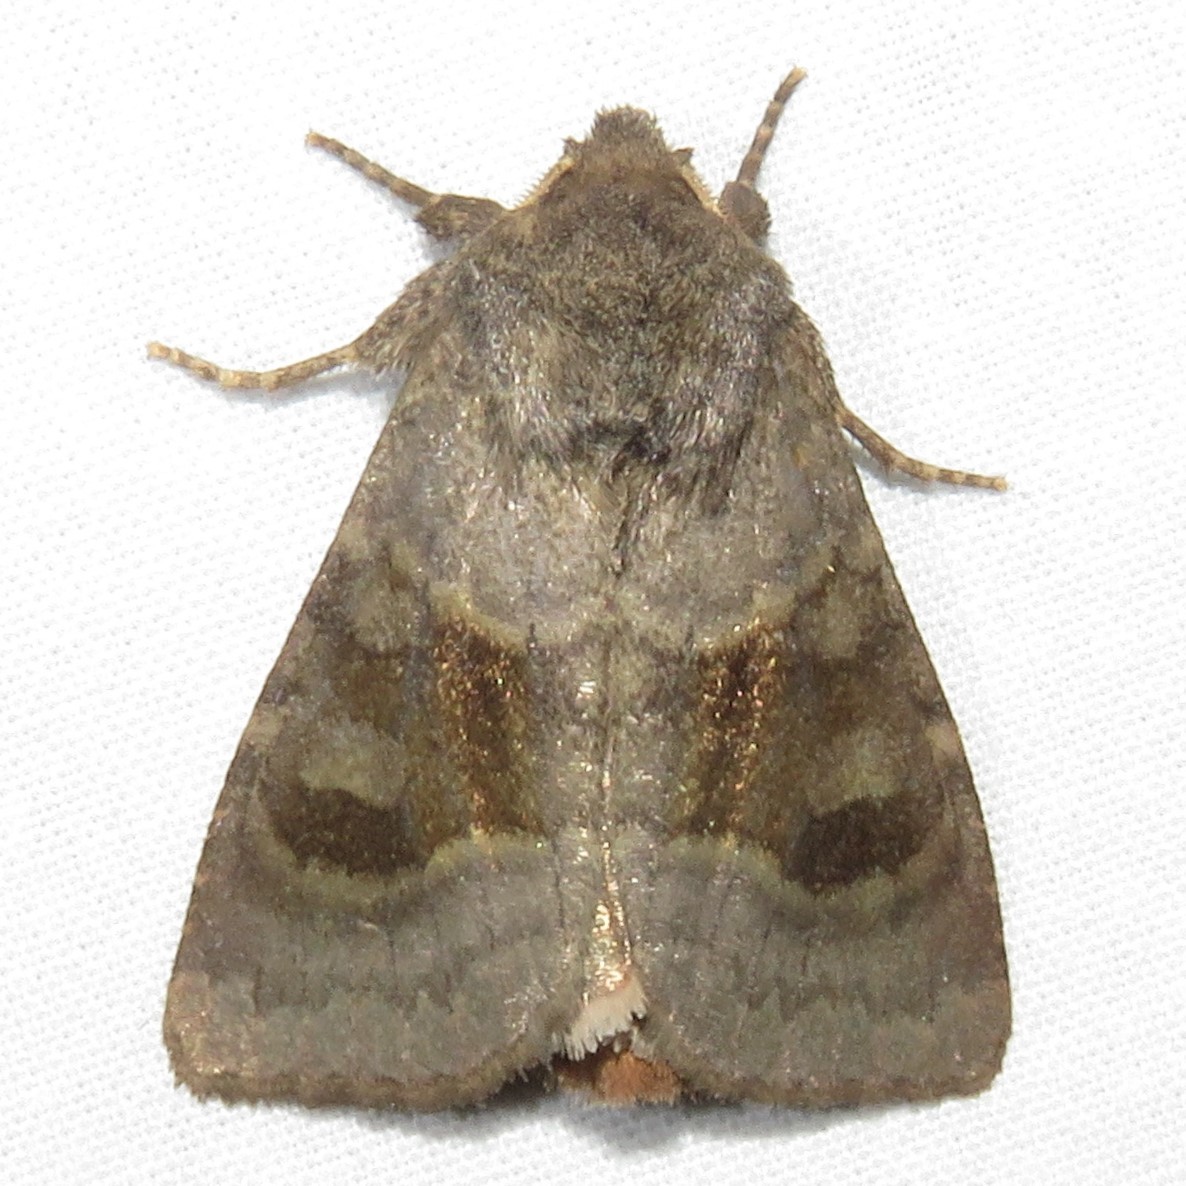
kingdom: Animalia
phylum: Arthropoda
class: Insecta
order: Lepidoptera
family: Noctuidae
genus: Nephelodes
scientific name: Nephelodes minians
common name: Bronzed cutworm
